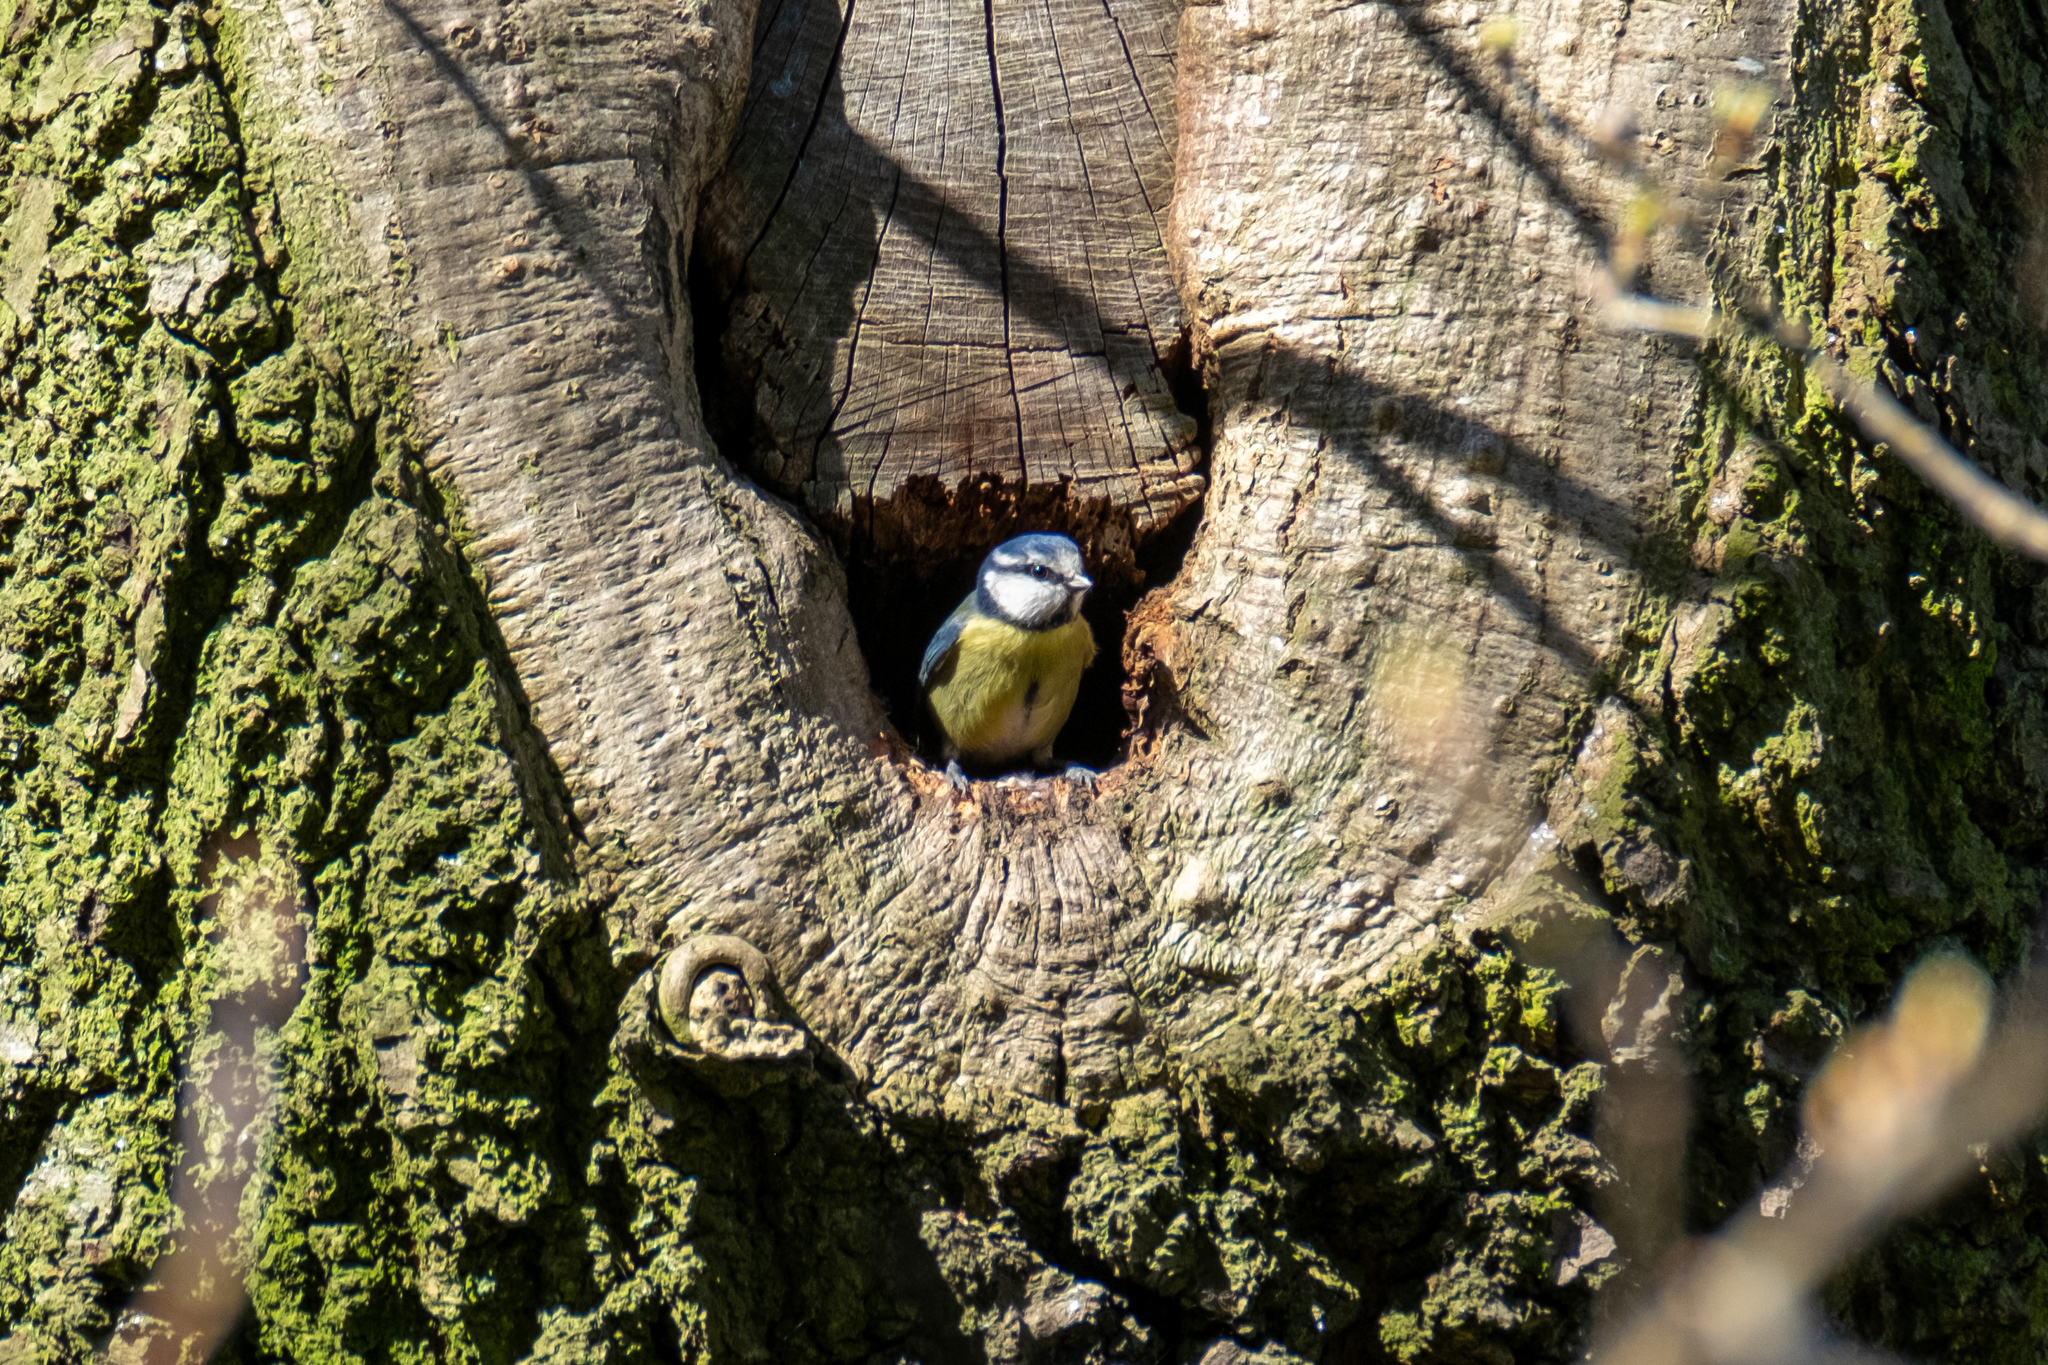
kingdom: Animalia
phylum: Chordata
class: Aves
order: Passeriformes
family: Paridae
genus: Cyanistes
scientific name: Cyanistes caeruleus
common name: Eurasian blue tit
